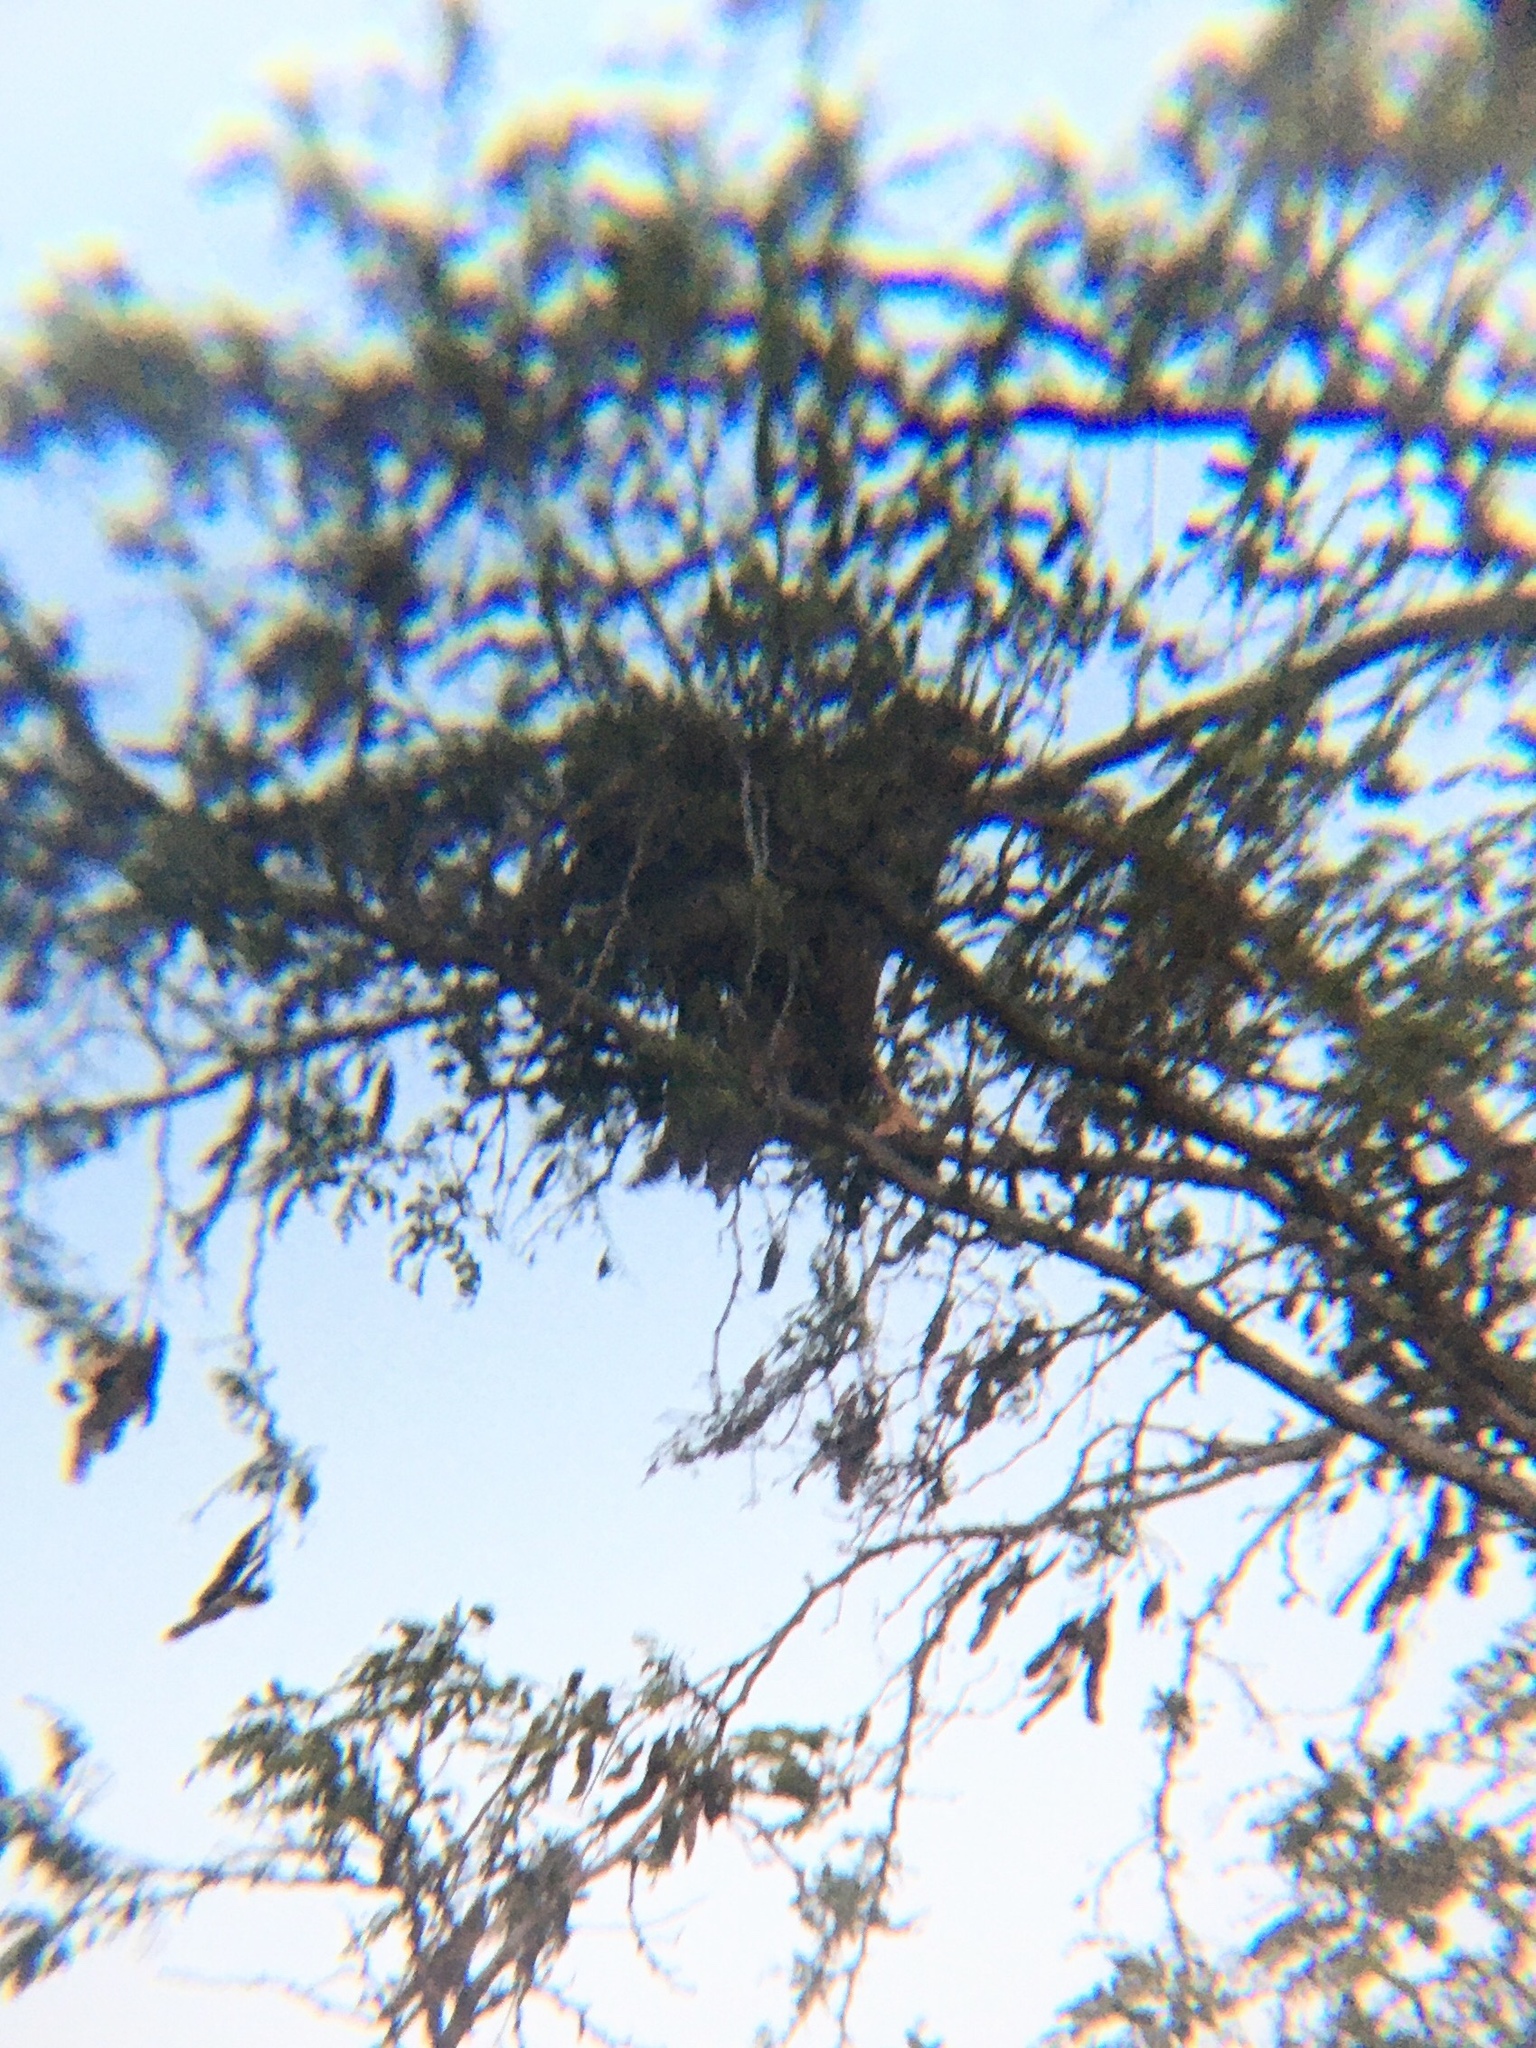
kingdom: Animalia
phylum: Chordata
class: Aves
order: Accipitriformes
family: Accipitridae
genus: Parabuteo
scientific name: Parabuteo unicinctus
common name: Harris's hawk
